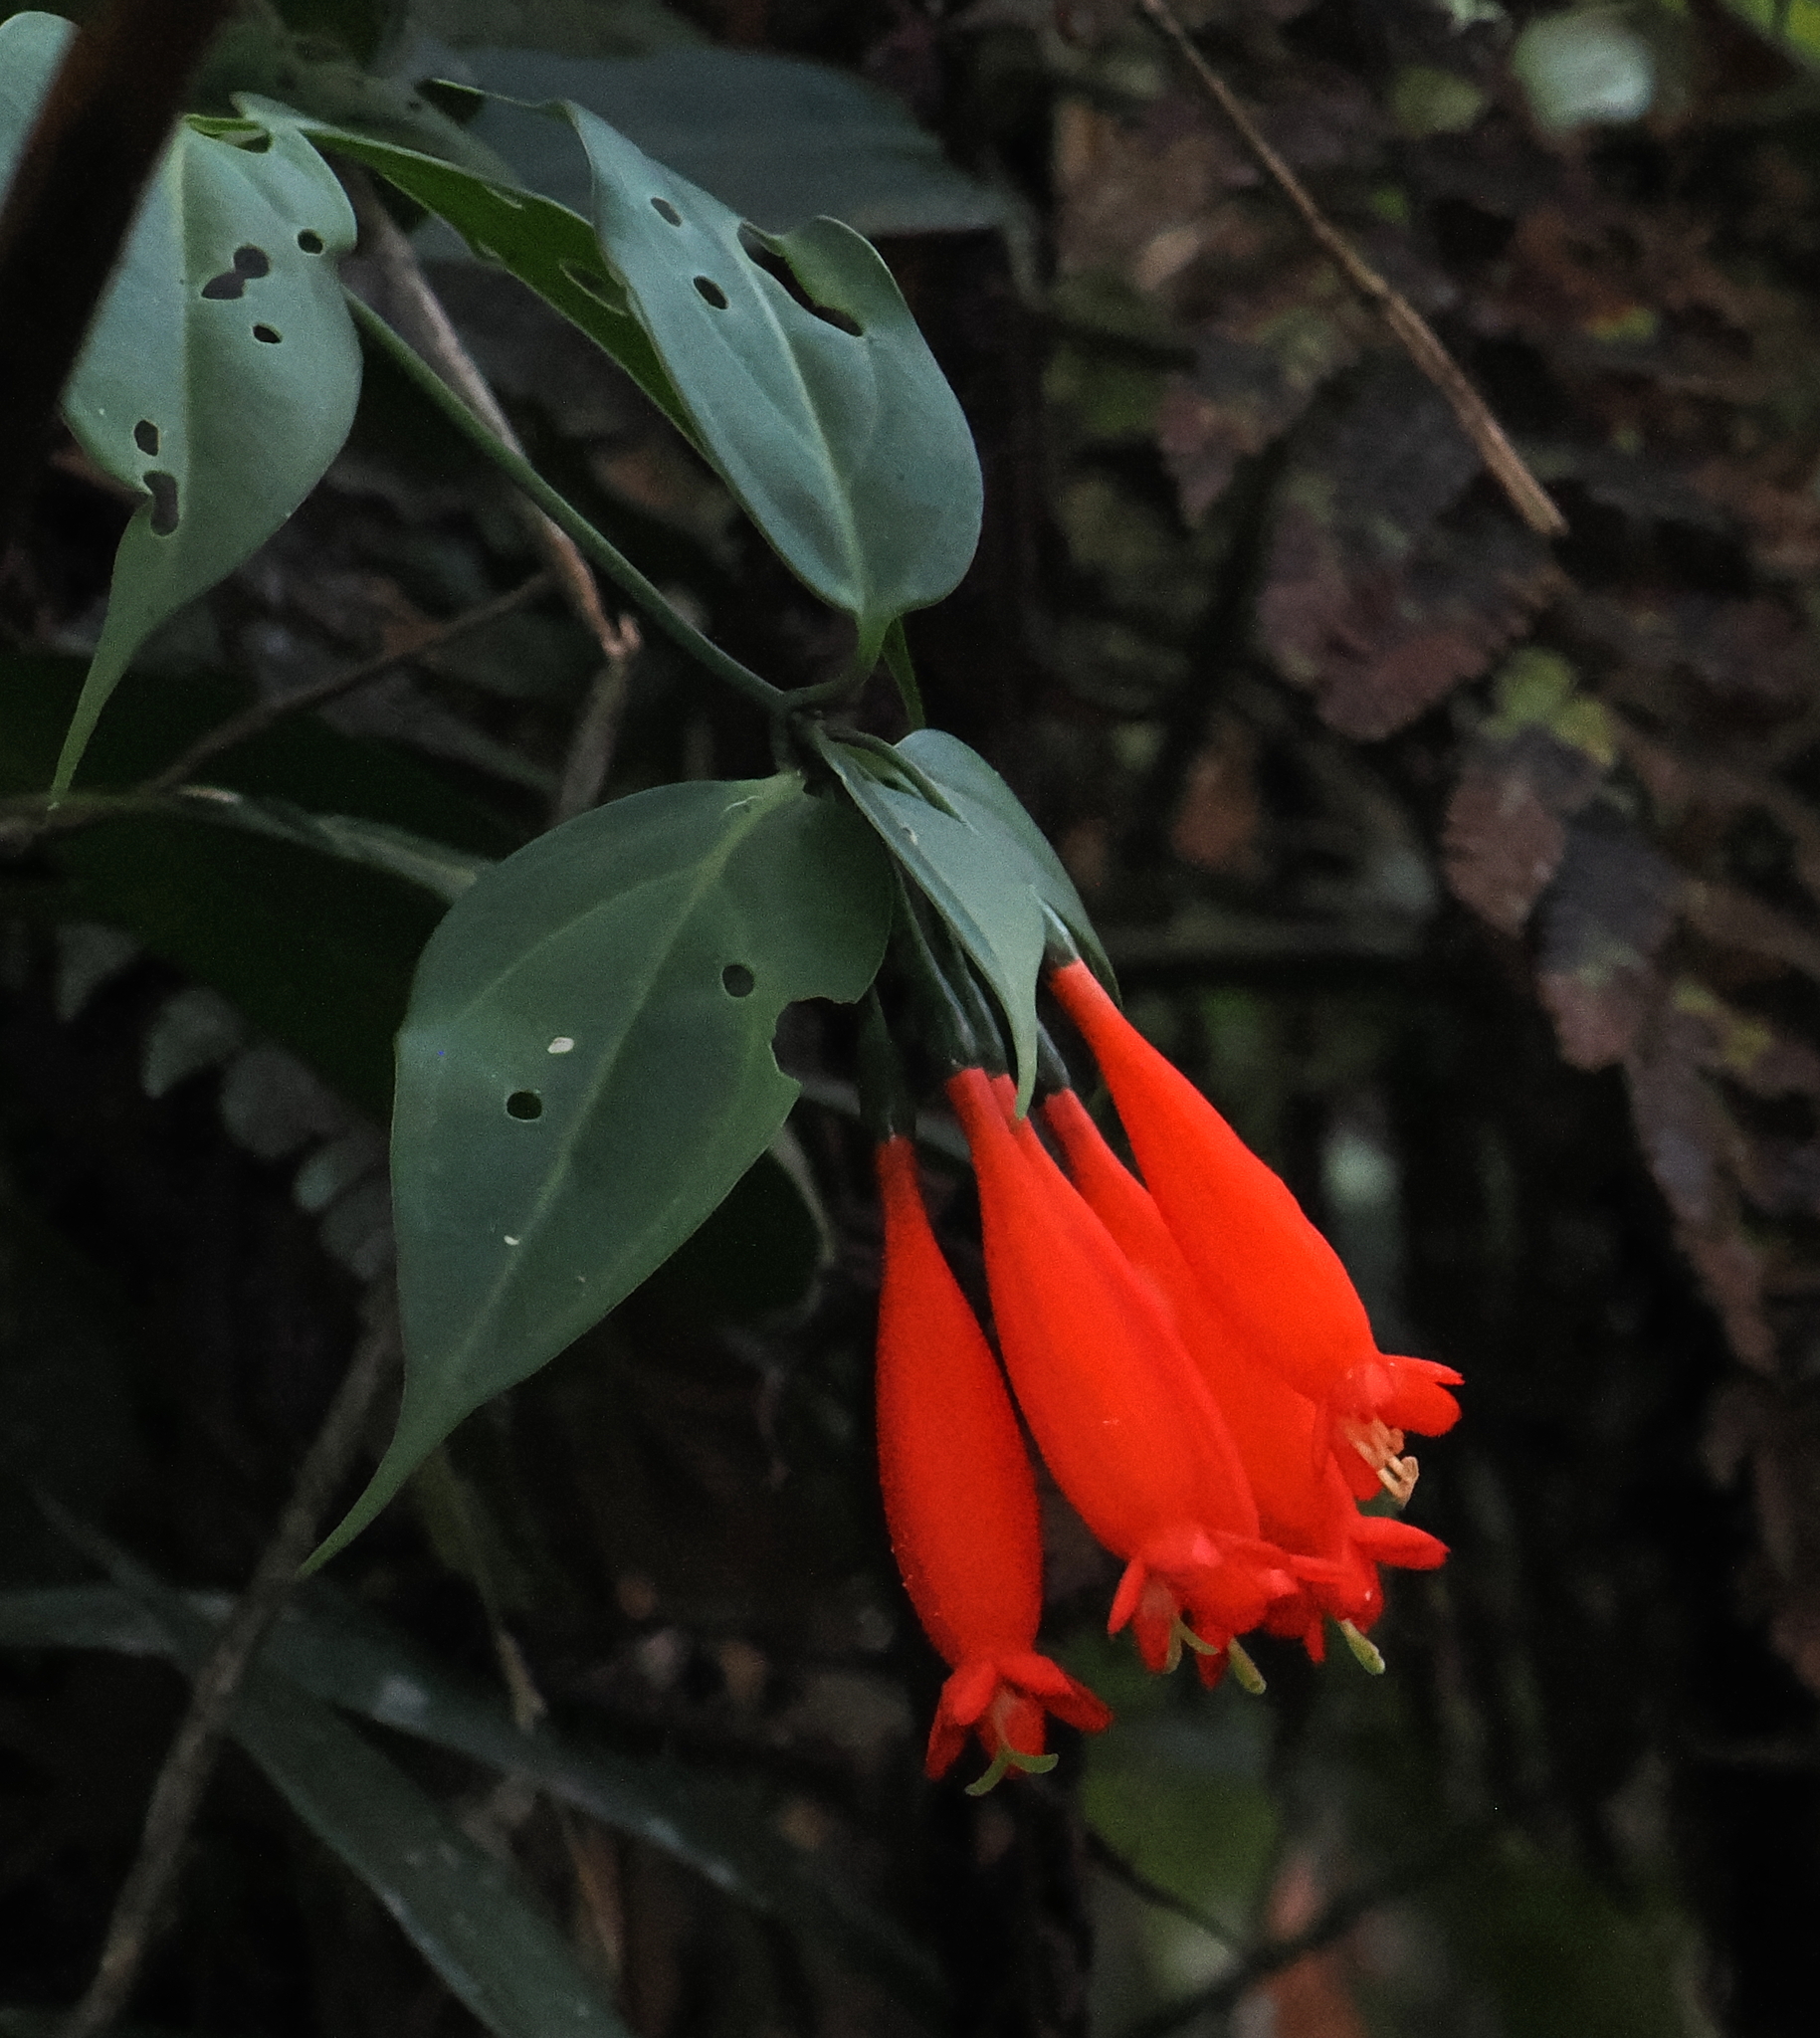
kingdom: Plantae
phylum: Tracheophyta
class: Magnoliopsida
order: Gentianales
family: Gentianaceae
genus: Lehmanniella
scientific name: Lehmanniella splendens
